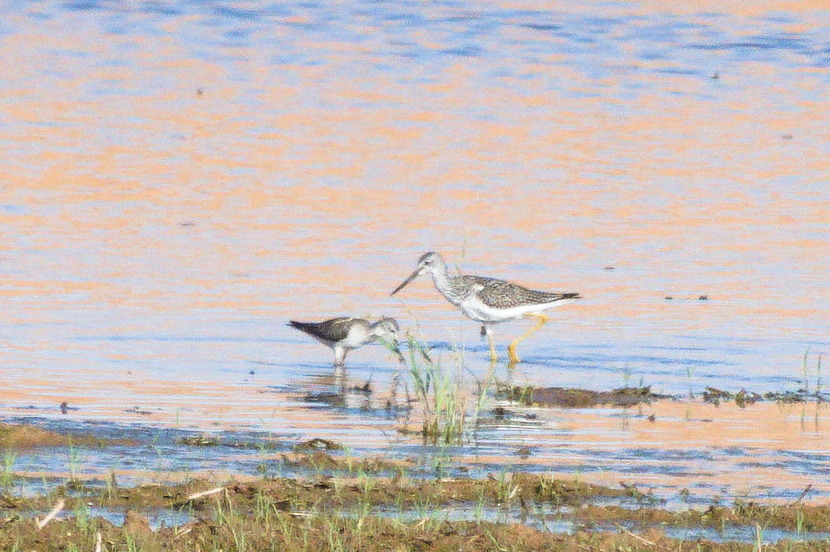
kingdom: Animalia
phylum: Chordata
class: Aves
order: Charadriiformes
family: Scolopacidae
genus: Tringa
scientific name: Tringa melanoleuca
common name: Greater yellowlegs
